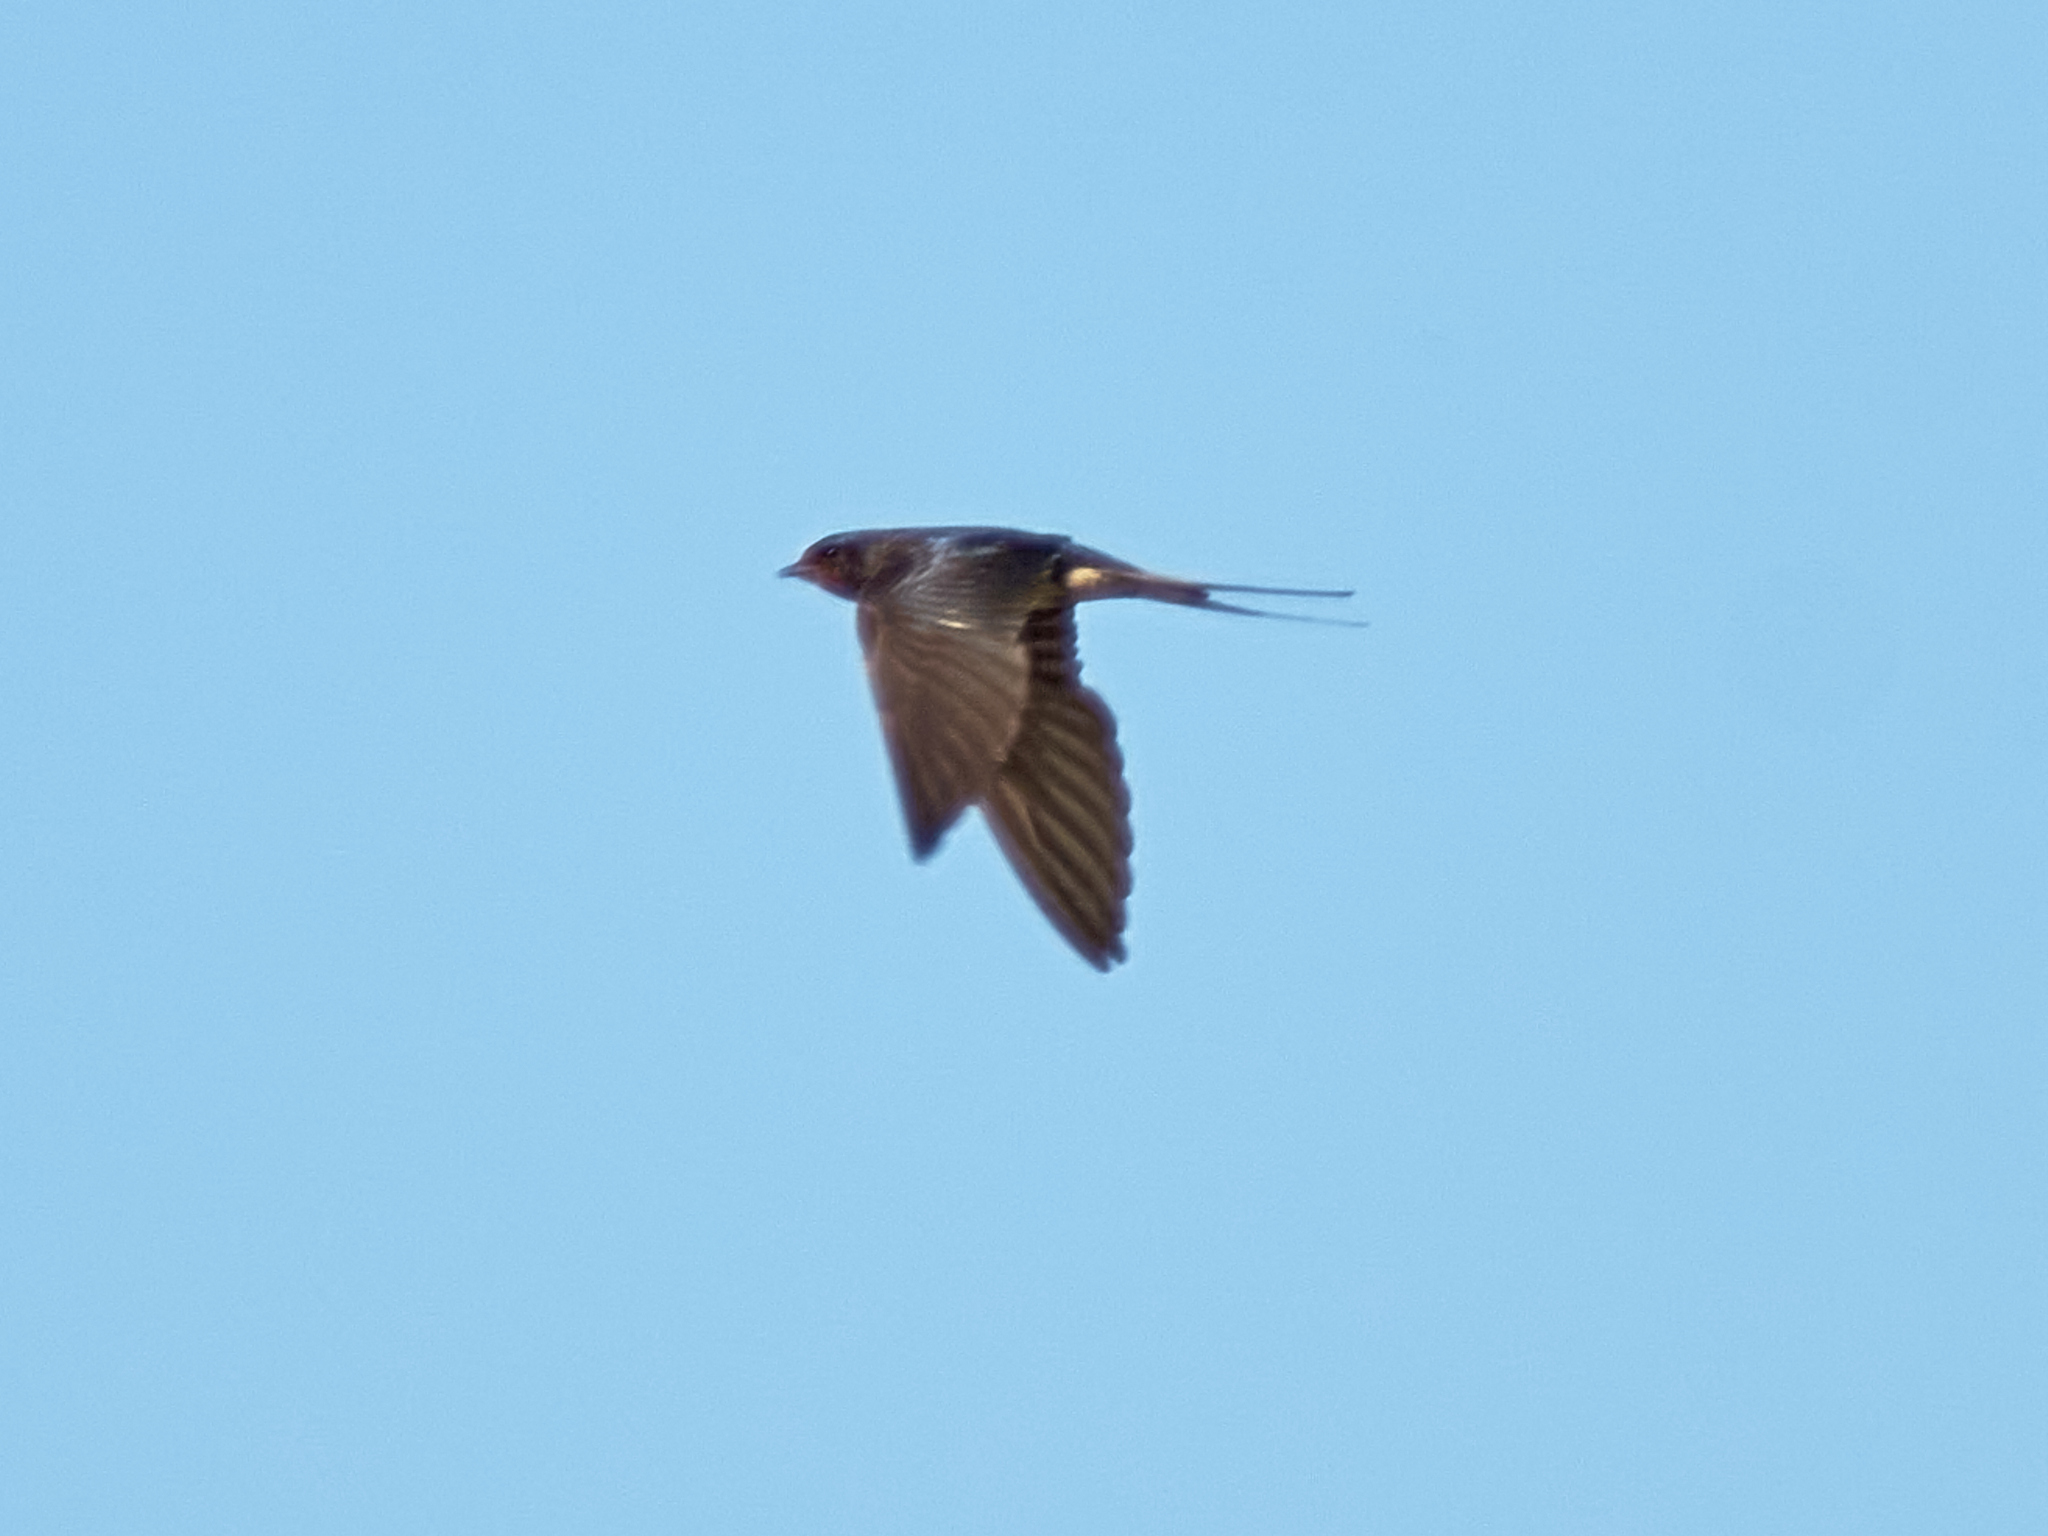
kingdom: Animalia
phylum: Chordata
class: Aves
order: Passeriformes
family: Hirundinidae
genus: Hirundo
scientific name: Hirundo rustica
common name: Barn swallow
